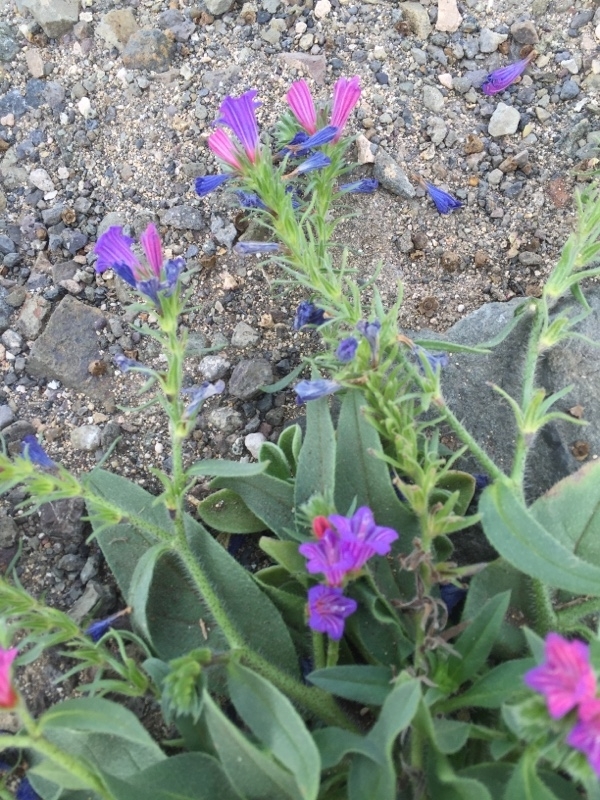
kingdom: Plantae
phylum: Tracheophyta
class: Magnoliopsida
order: Boraginales
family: Boraginaceae
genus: Echium
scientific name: Echium bonnetii
